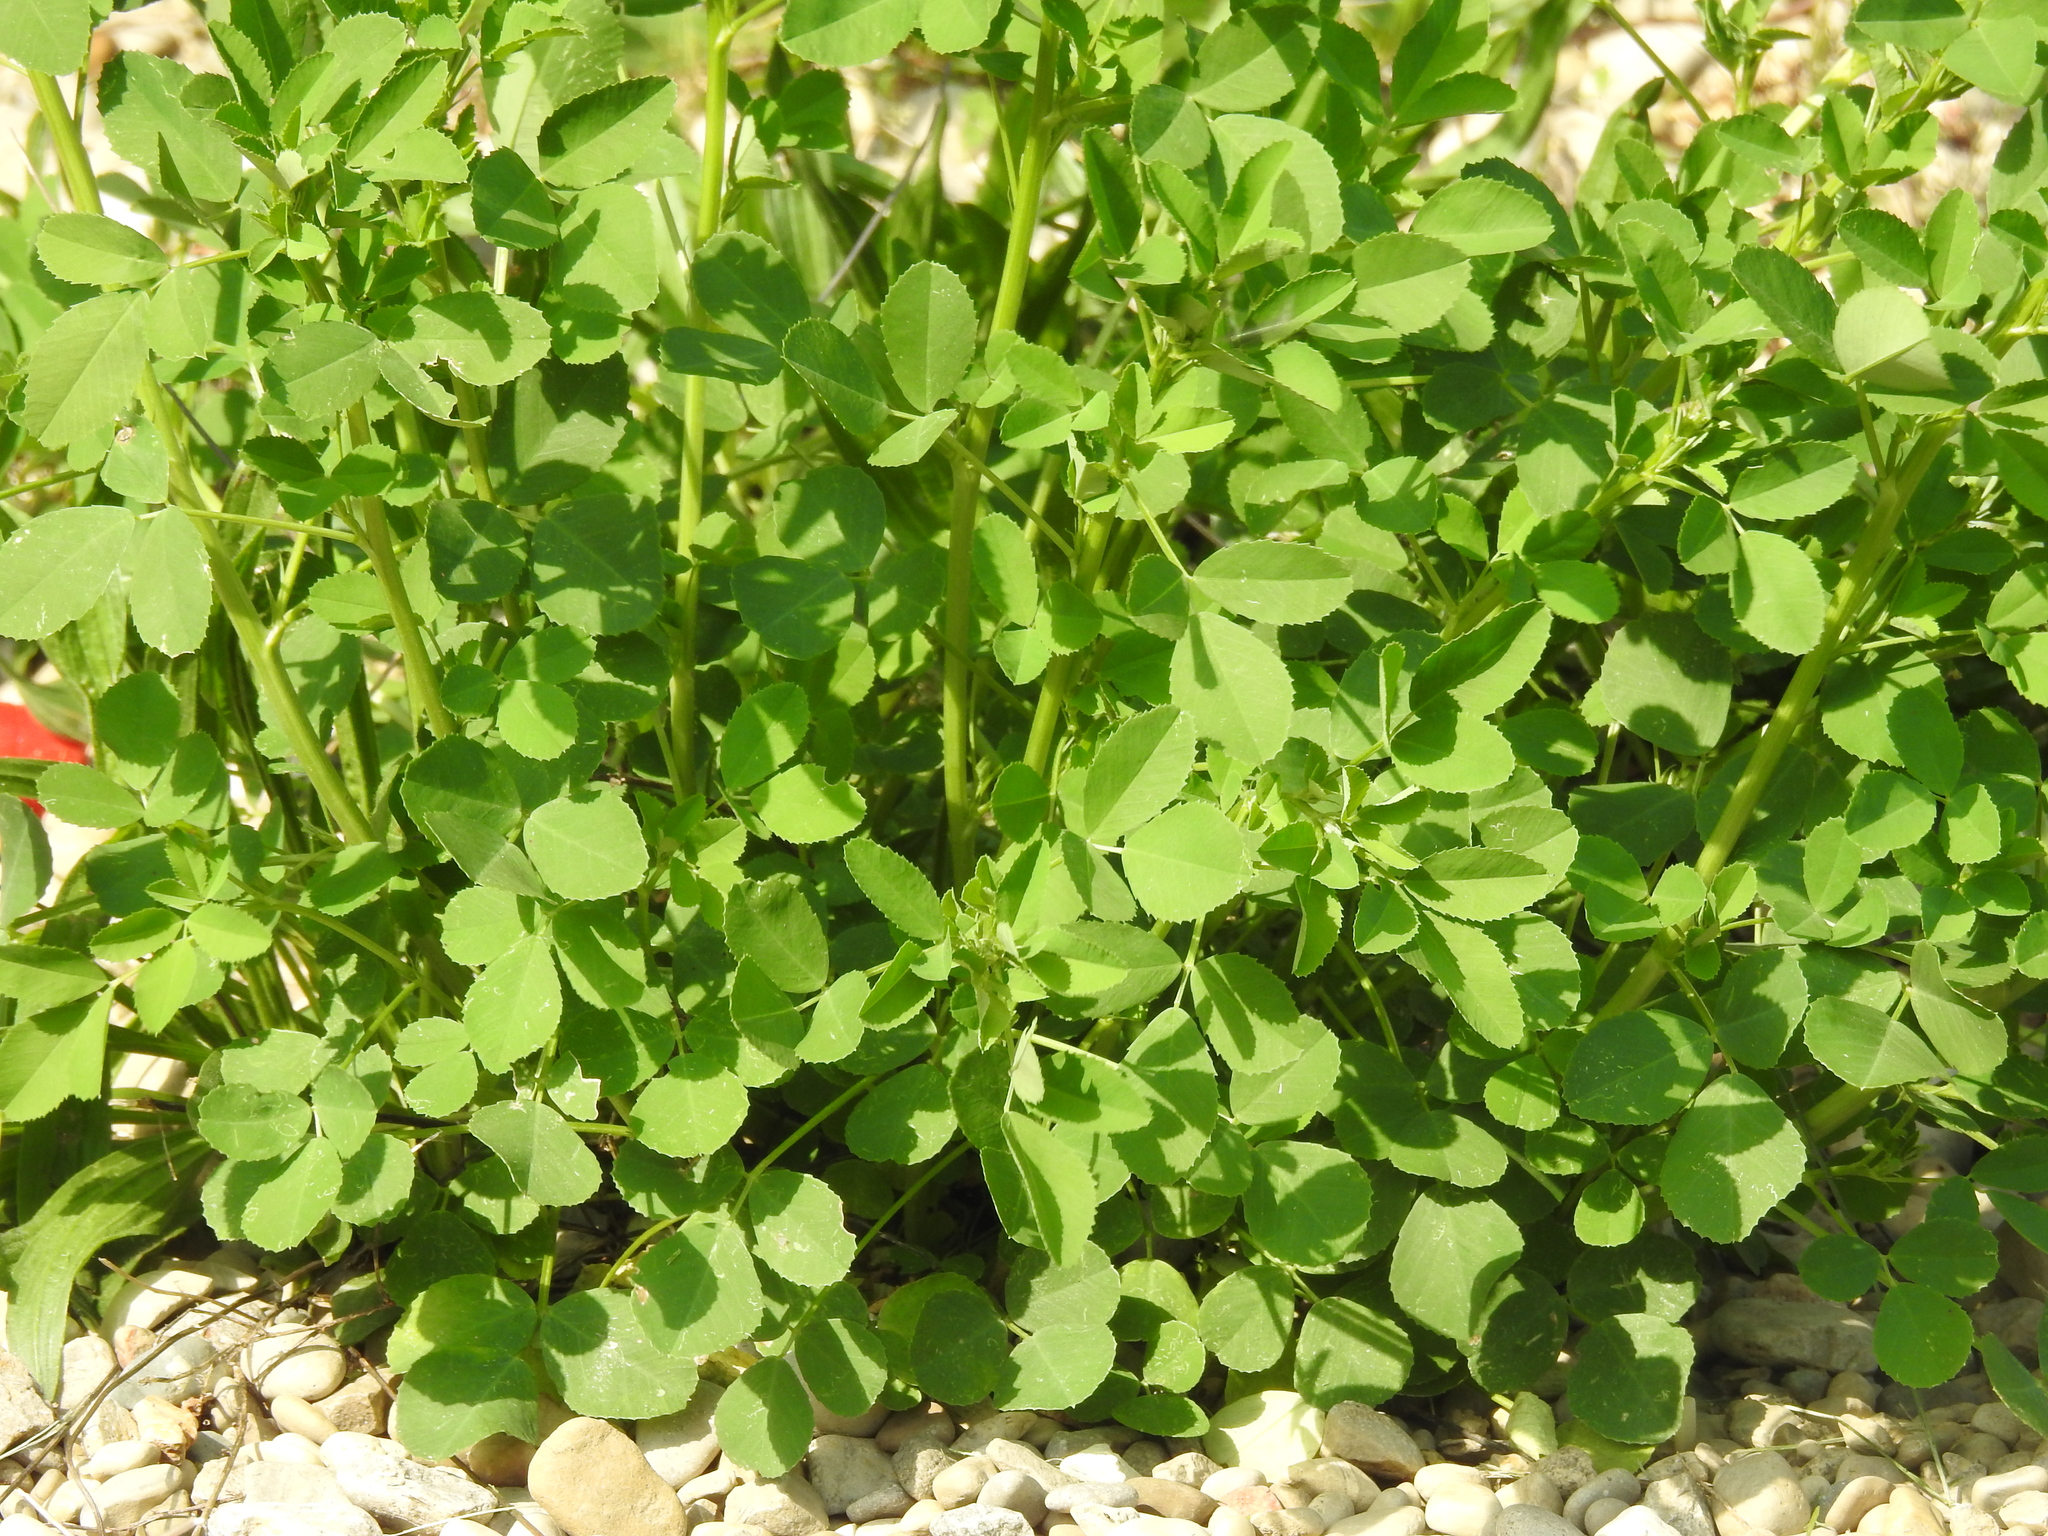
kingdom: Plantae
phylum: Tracheophyta
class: Magnoliopsida
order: Fabales
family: Fabaceae
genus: Melilotus
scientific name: Melilotus albus
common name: White melilot
